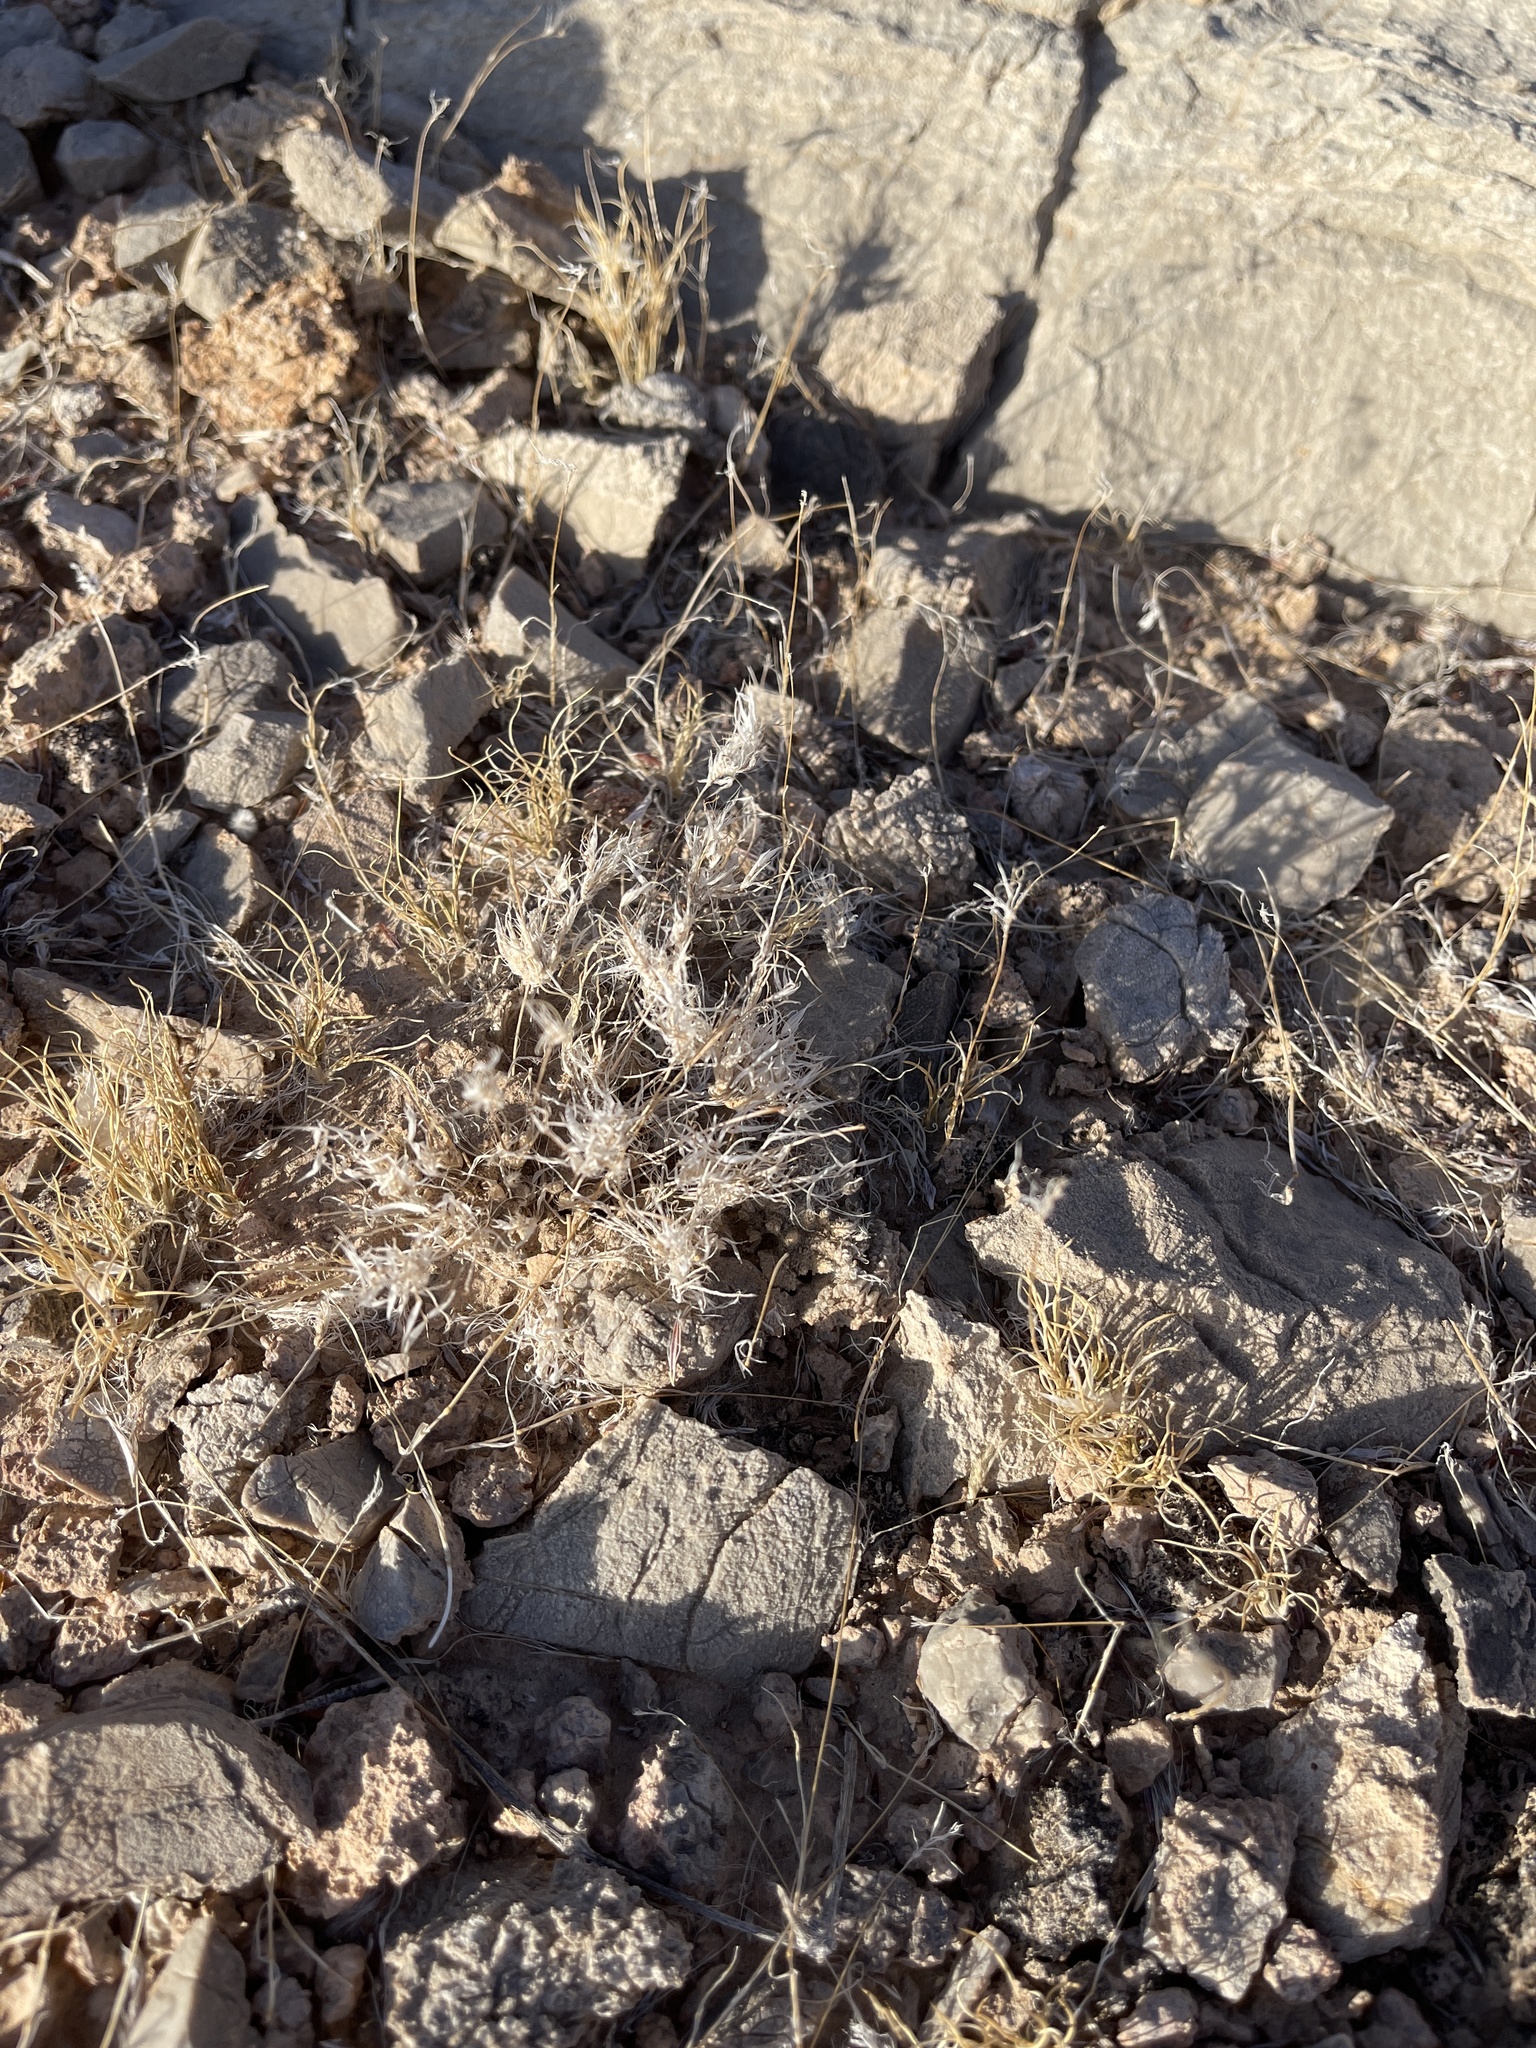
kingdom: Plantae
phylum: Tracheophyta
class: Liliopsida
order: Poales
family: Poaceae
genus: Dasyochloa
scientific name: Dasyochloa pulchella
